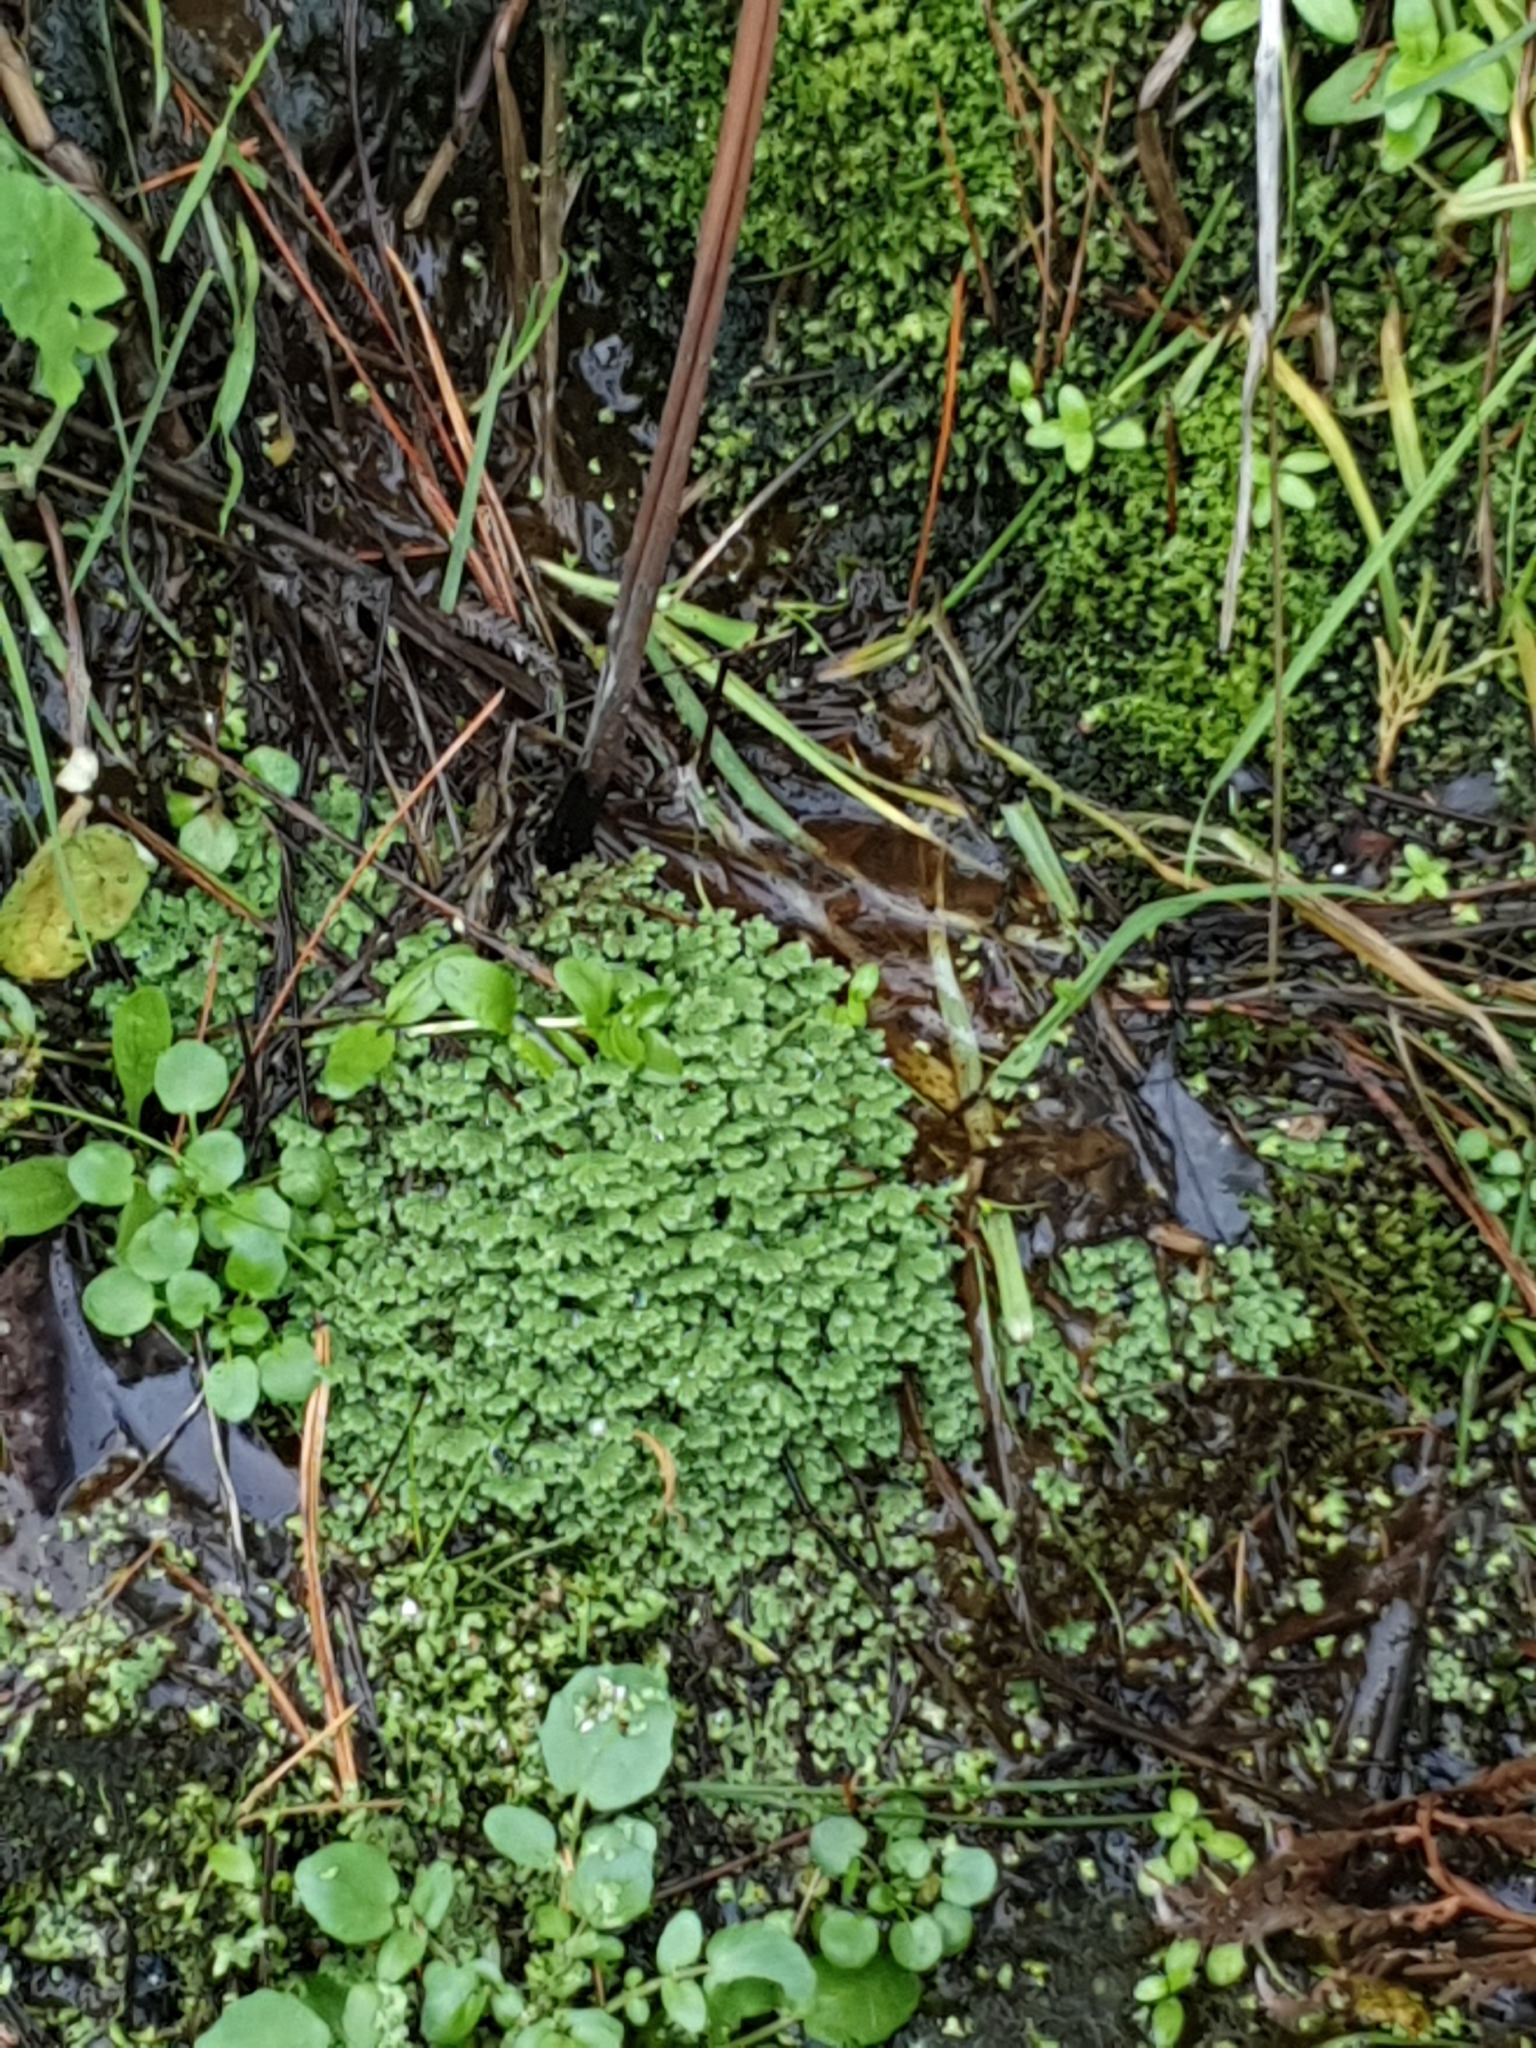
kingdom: Plantae
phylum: Tracheophyta
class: Polypodiopsida
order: Salviniales
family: Salviniaceae
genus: Azolla
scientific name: Azolla rubra
